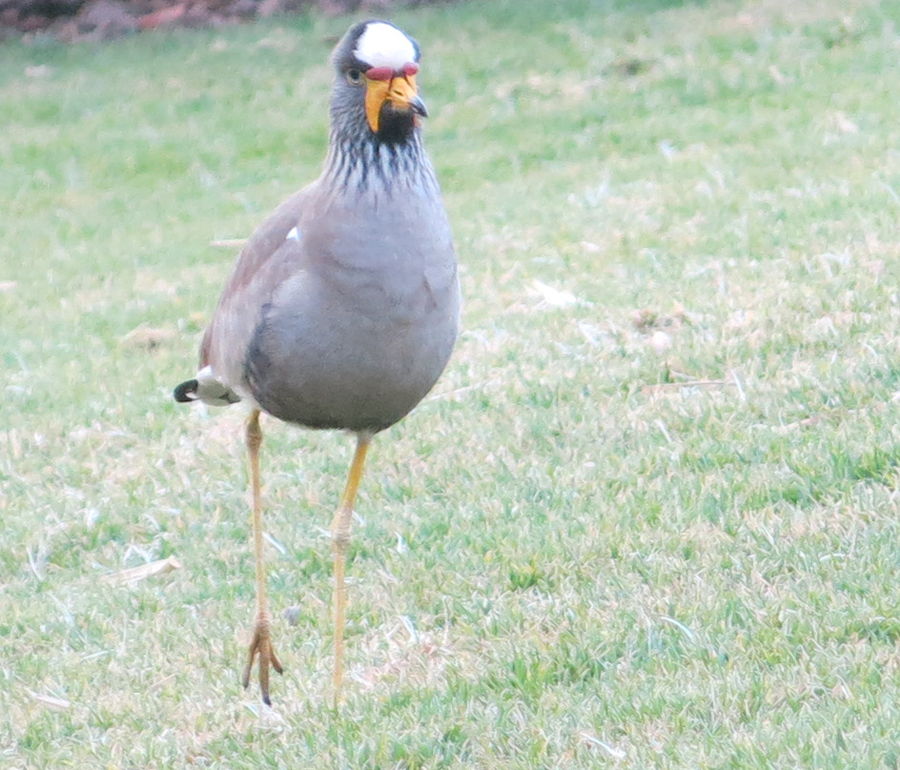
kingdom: Animalia
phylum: Chordata
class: Aves
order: Charadriiformes
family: Charadriidae
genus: Vanellus
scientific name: Vanellus senegallus
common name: African wattled lapwing
